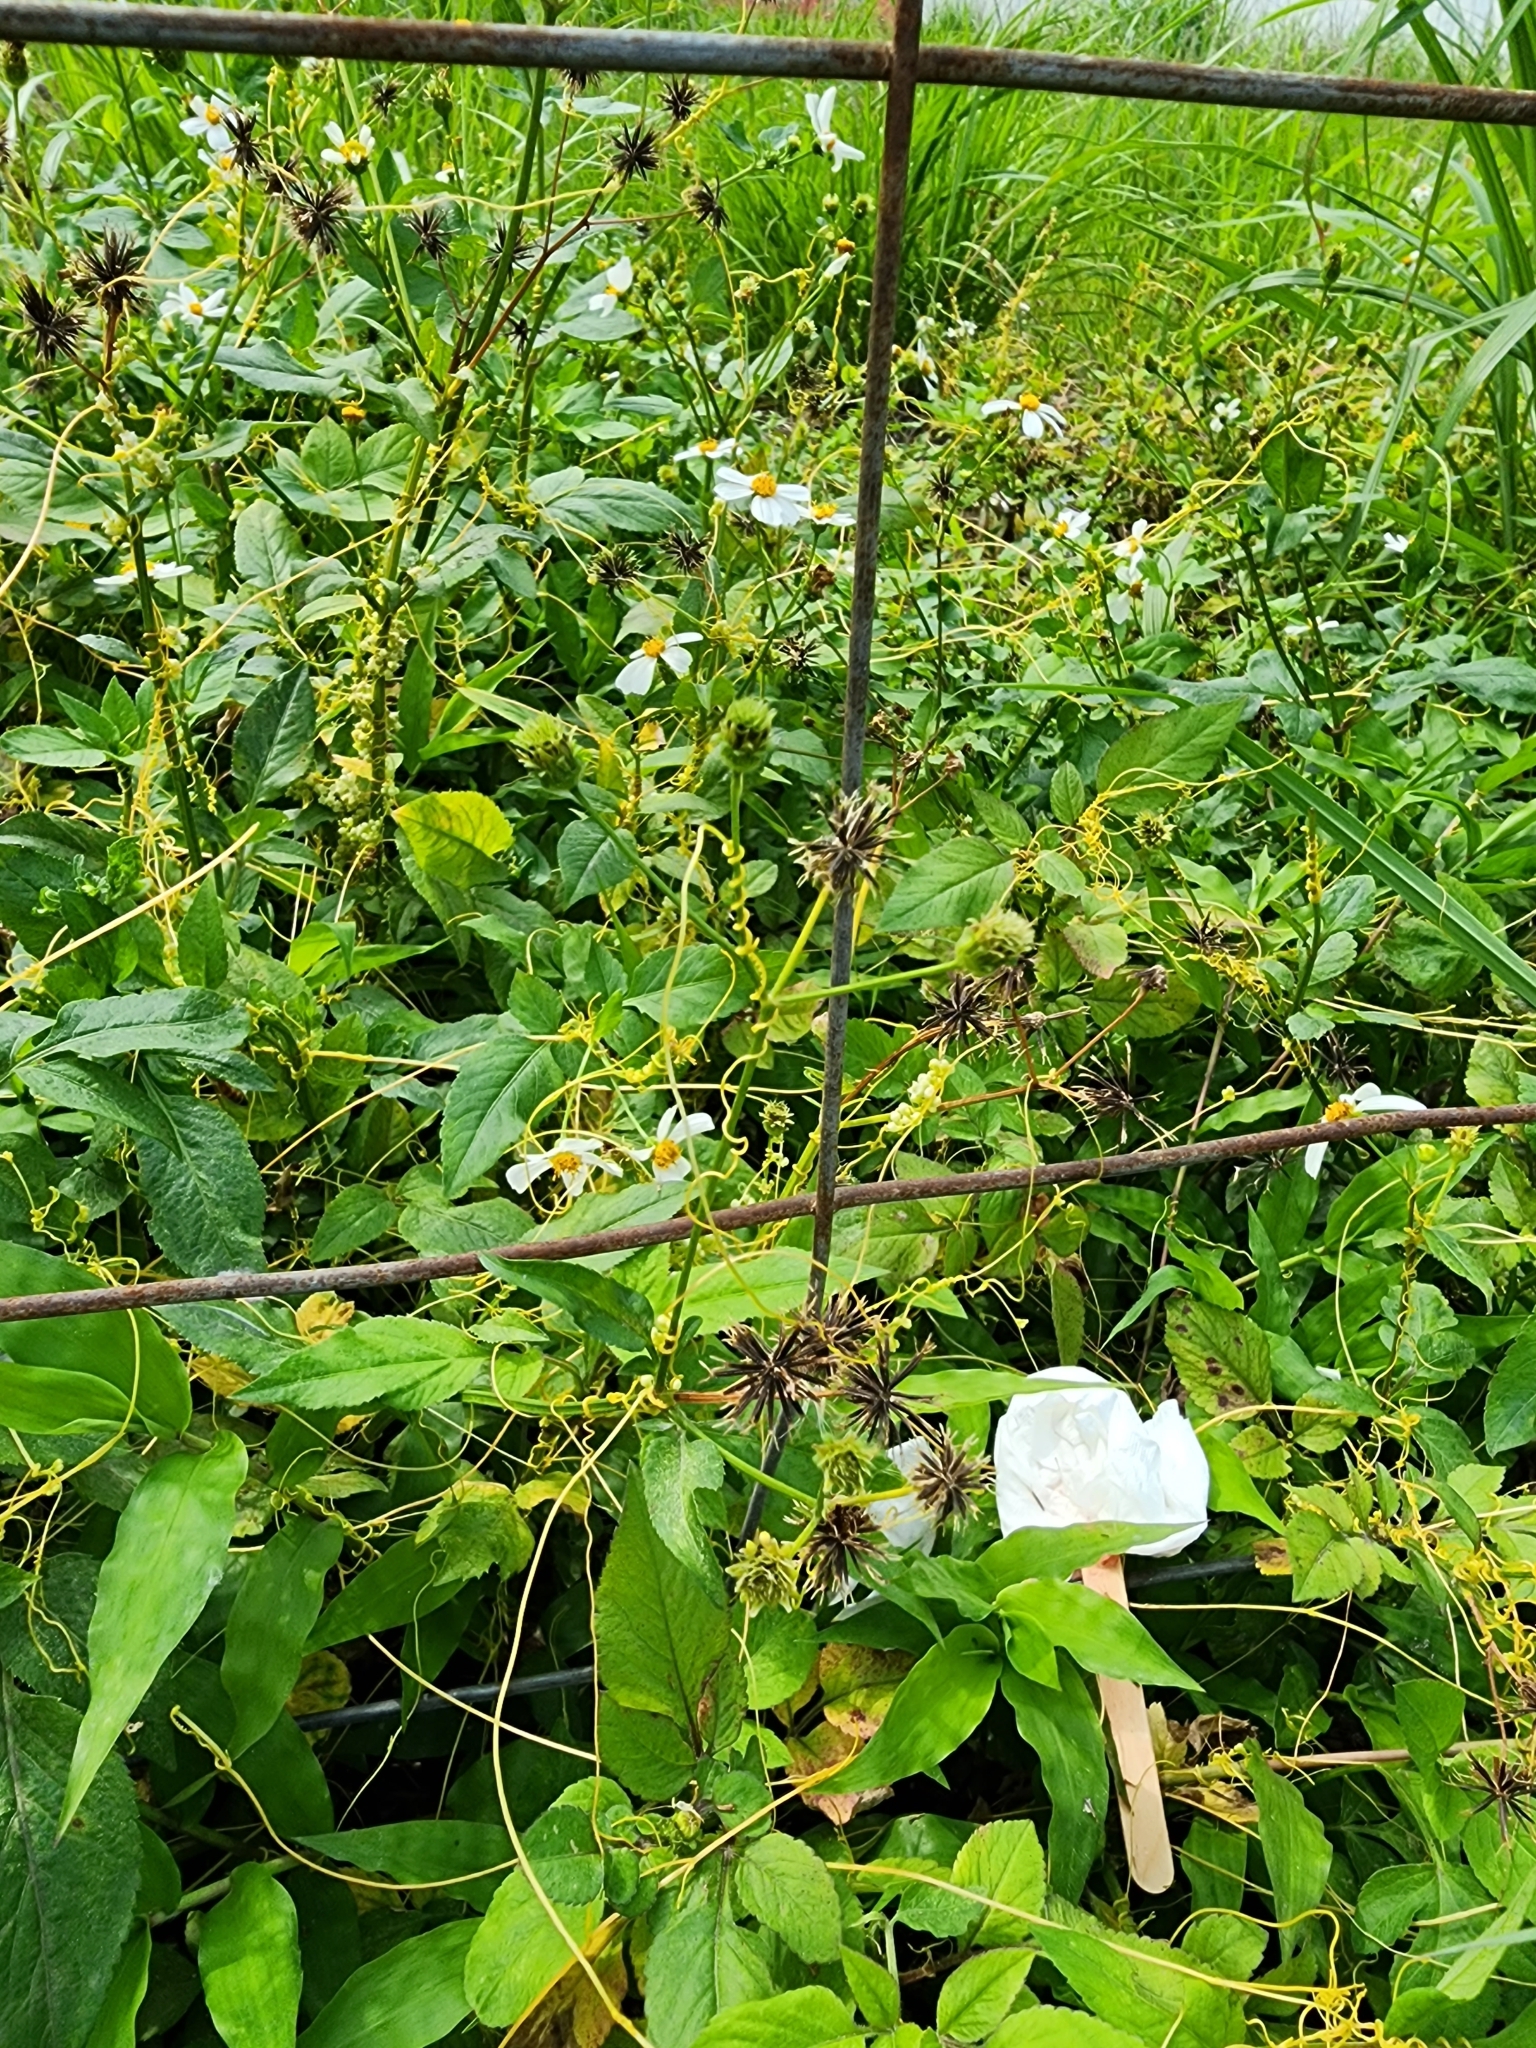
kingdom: Plantae
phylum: Tracheophyta
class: Magnoliopsida
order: Solanales
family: Convolvulaceae
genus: Cuscuta
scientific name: Cuscuta campestris
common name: Yellow dodder
